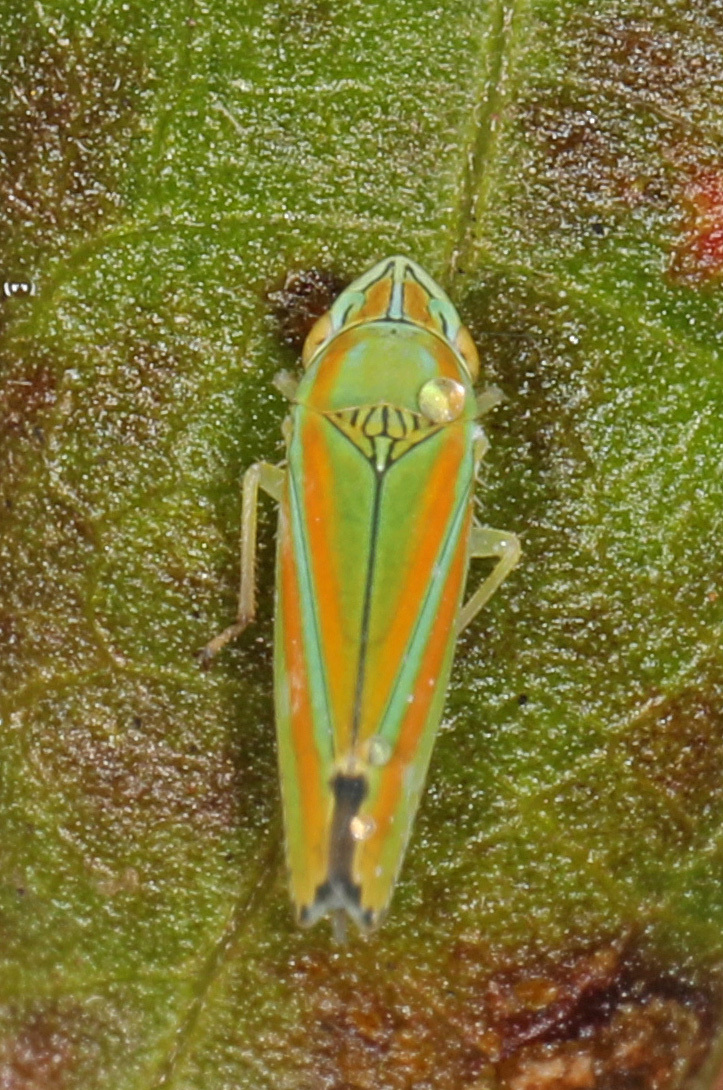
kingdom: Animalia
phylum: Arthropoda
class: Insecta
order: Hemiptera
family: Cicadellidae
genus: Graphocephala
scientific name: Graphocephala versuta
